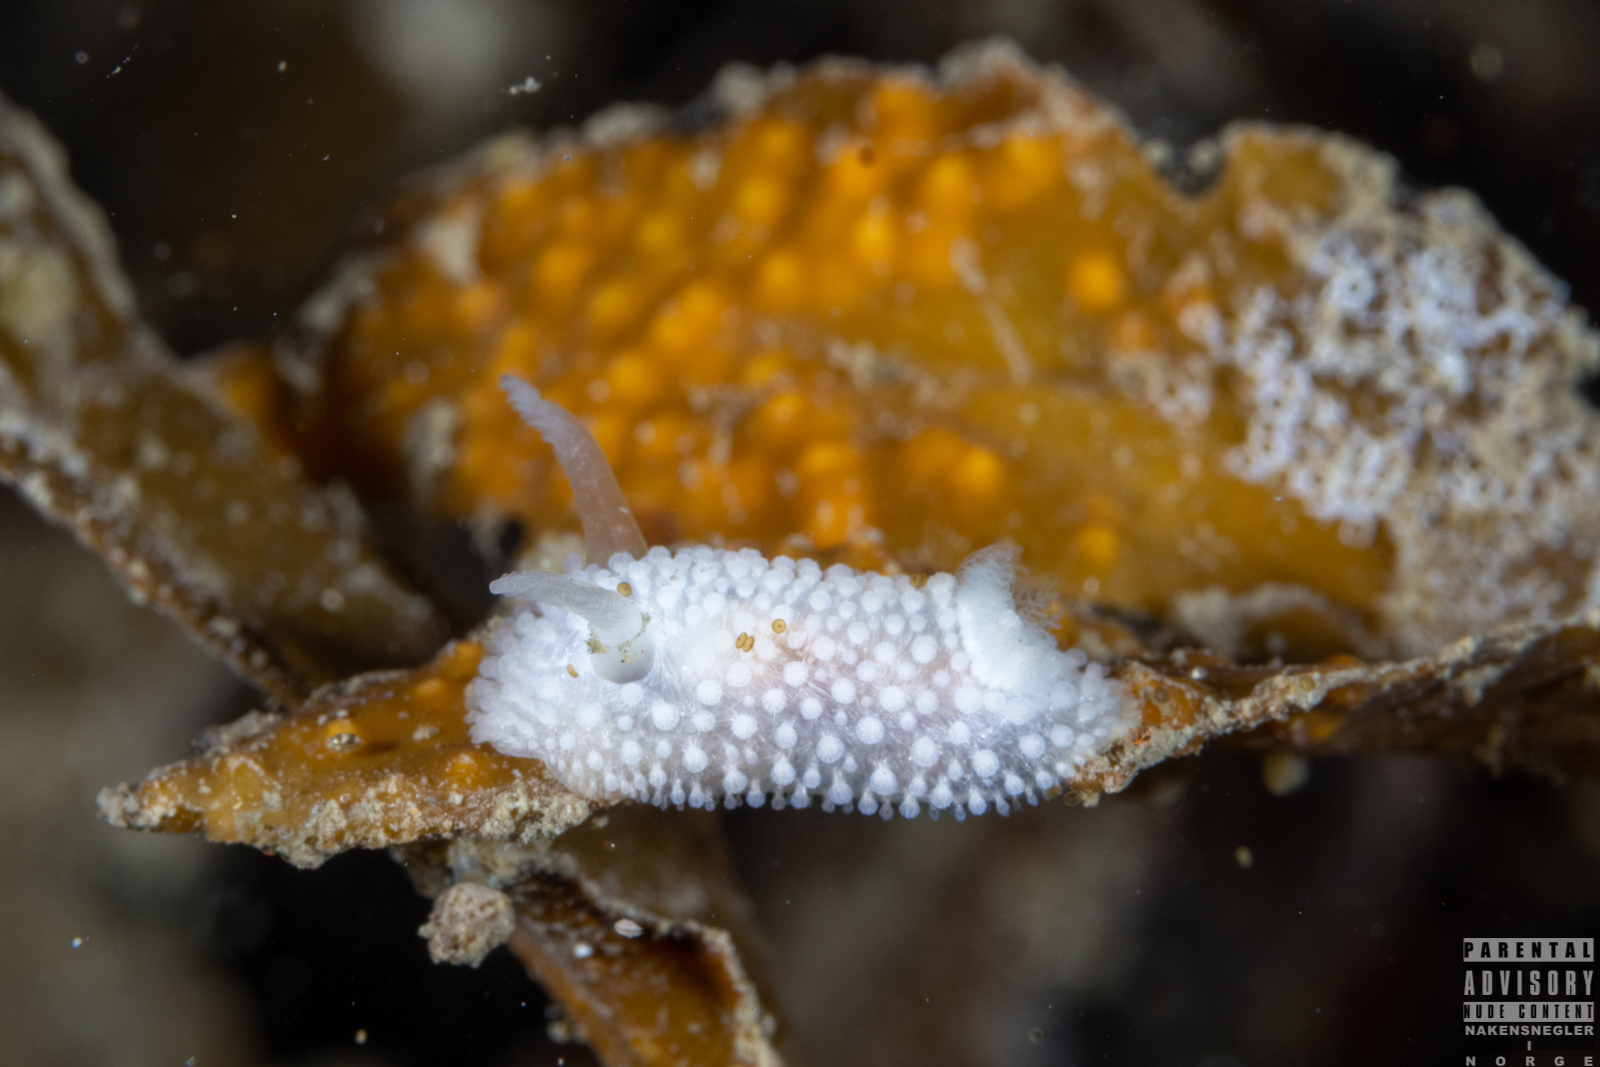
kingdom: Animalia
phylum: Mollusca
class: Gastropoda
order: Nudibranchia
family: Onchidorididae
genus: Onchidoris
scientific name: Onchidoris muricata
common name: Rough doris
